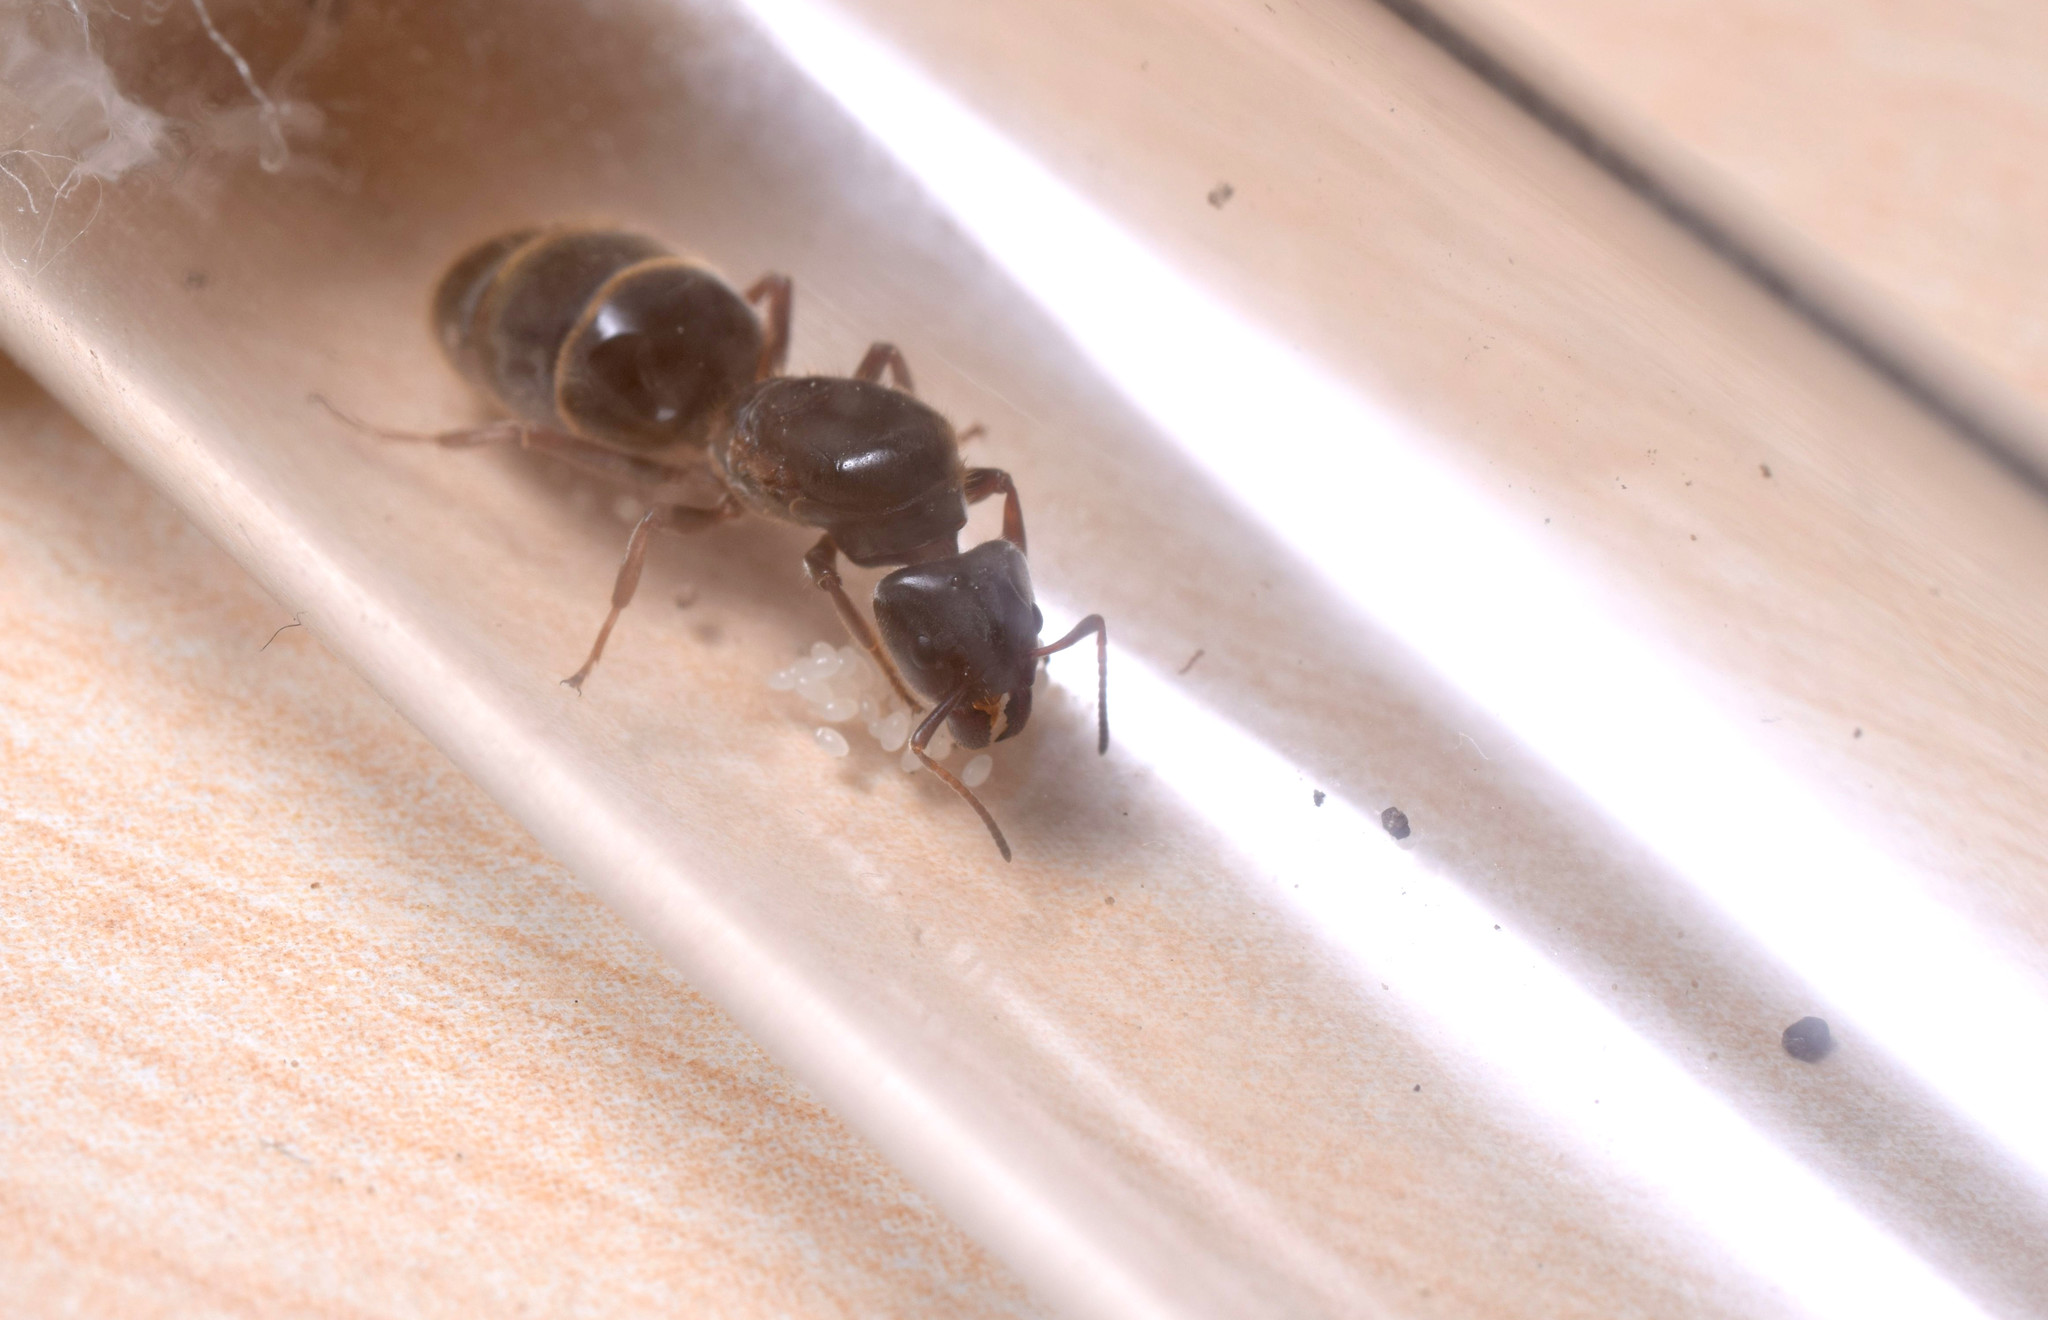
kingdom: Animalia
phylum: Arthropoda
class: Insecta
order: Hymenoptera
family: Formicidae
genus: Liometopum
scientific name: Liometopum microcephalum
